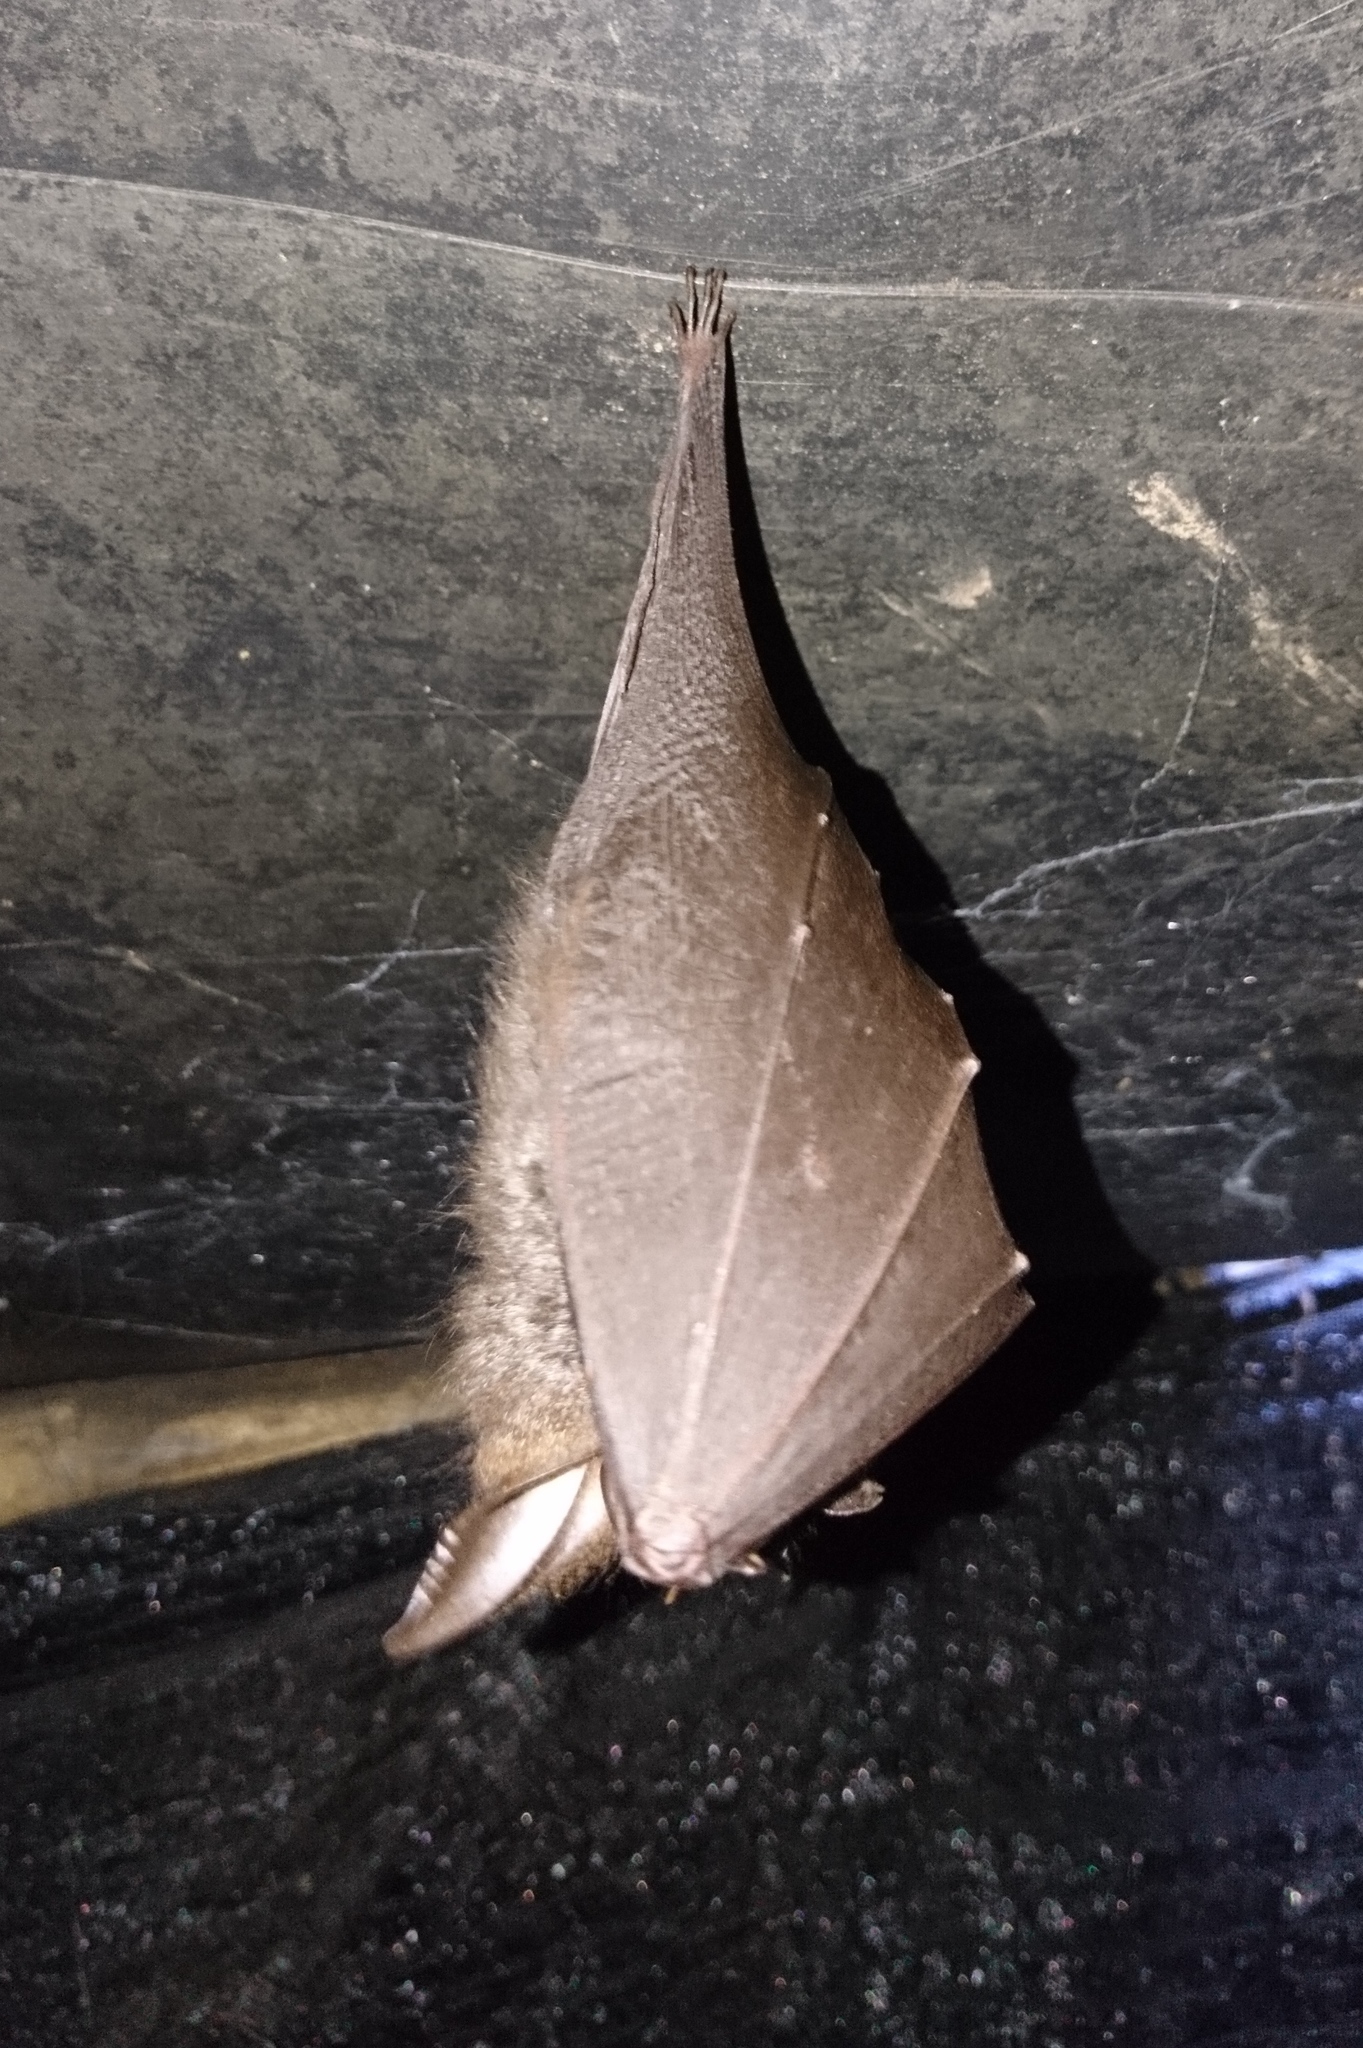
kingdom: Animalia
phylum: Chordata
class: Mammalia
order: Chiroptera
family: Rhinolophidae
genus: Rhinolophus
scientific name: Rhinolophus luctus
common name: Woolly horseshoe bat
